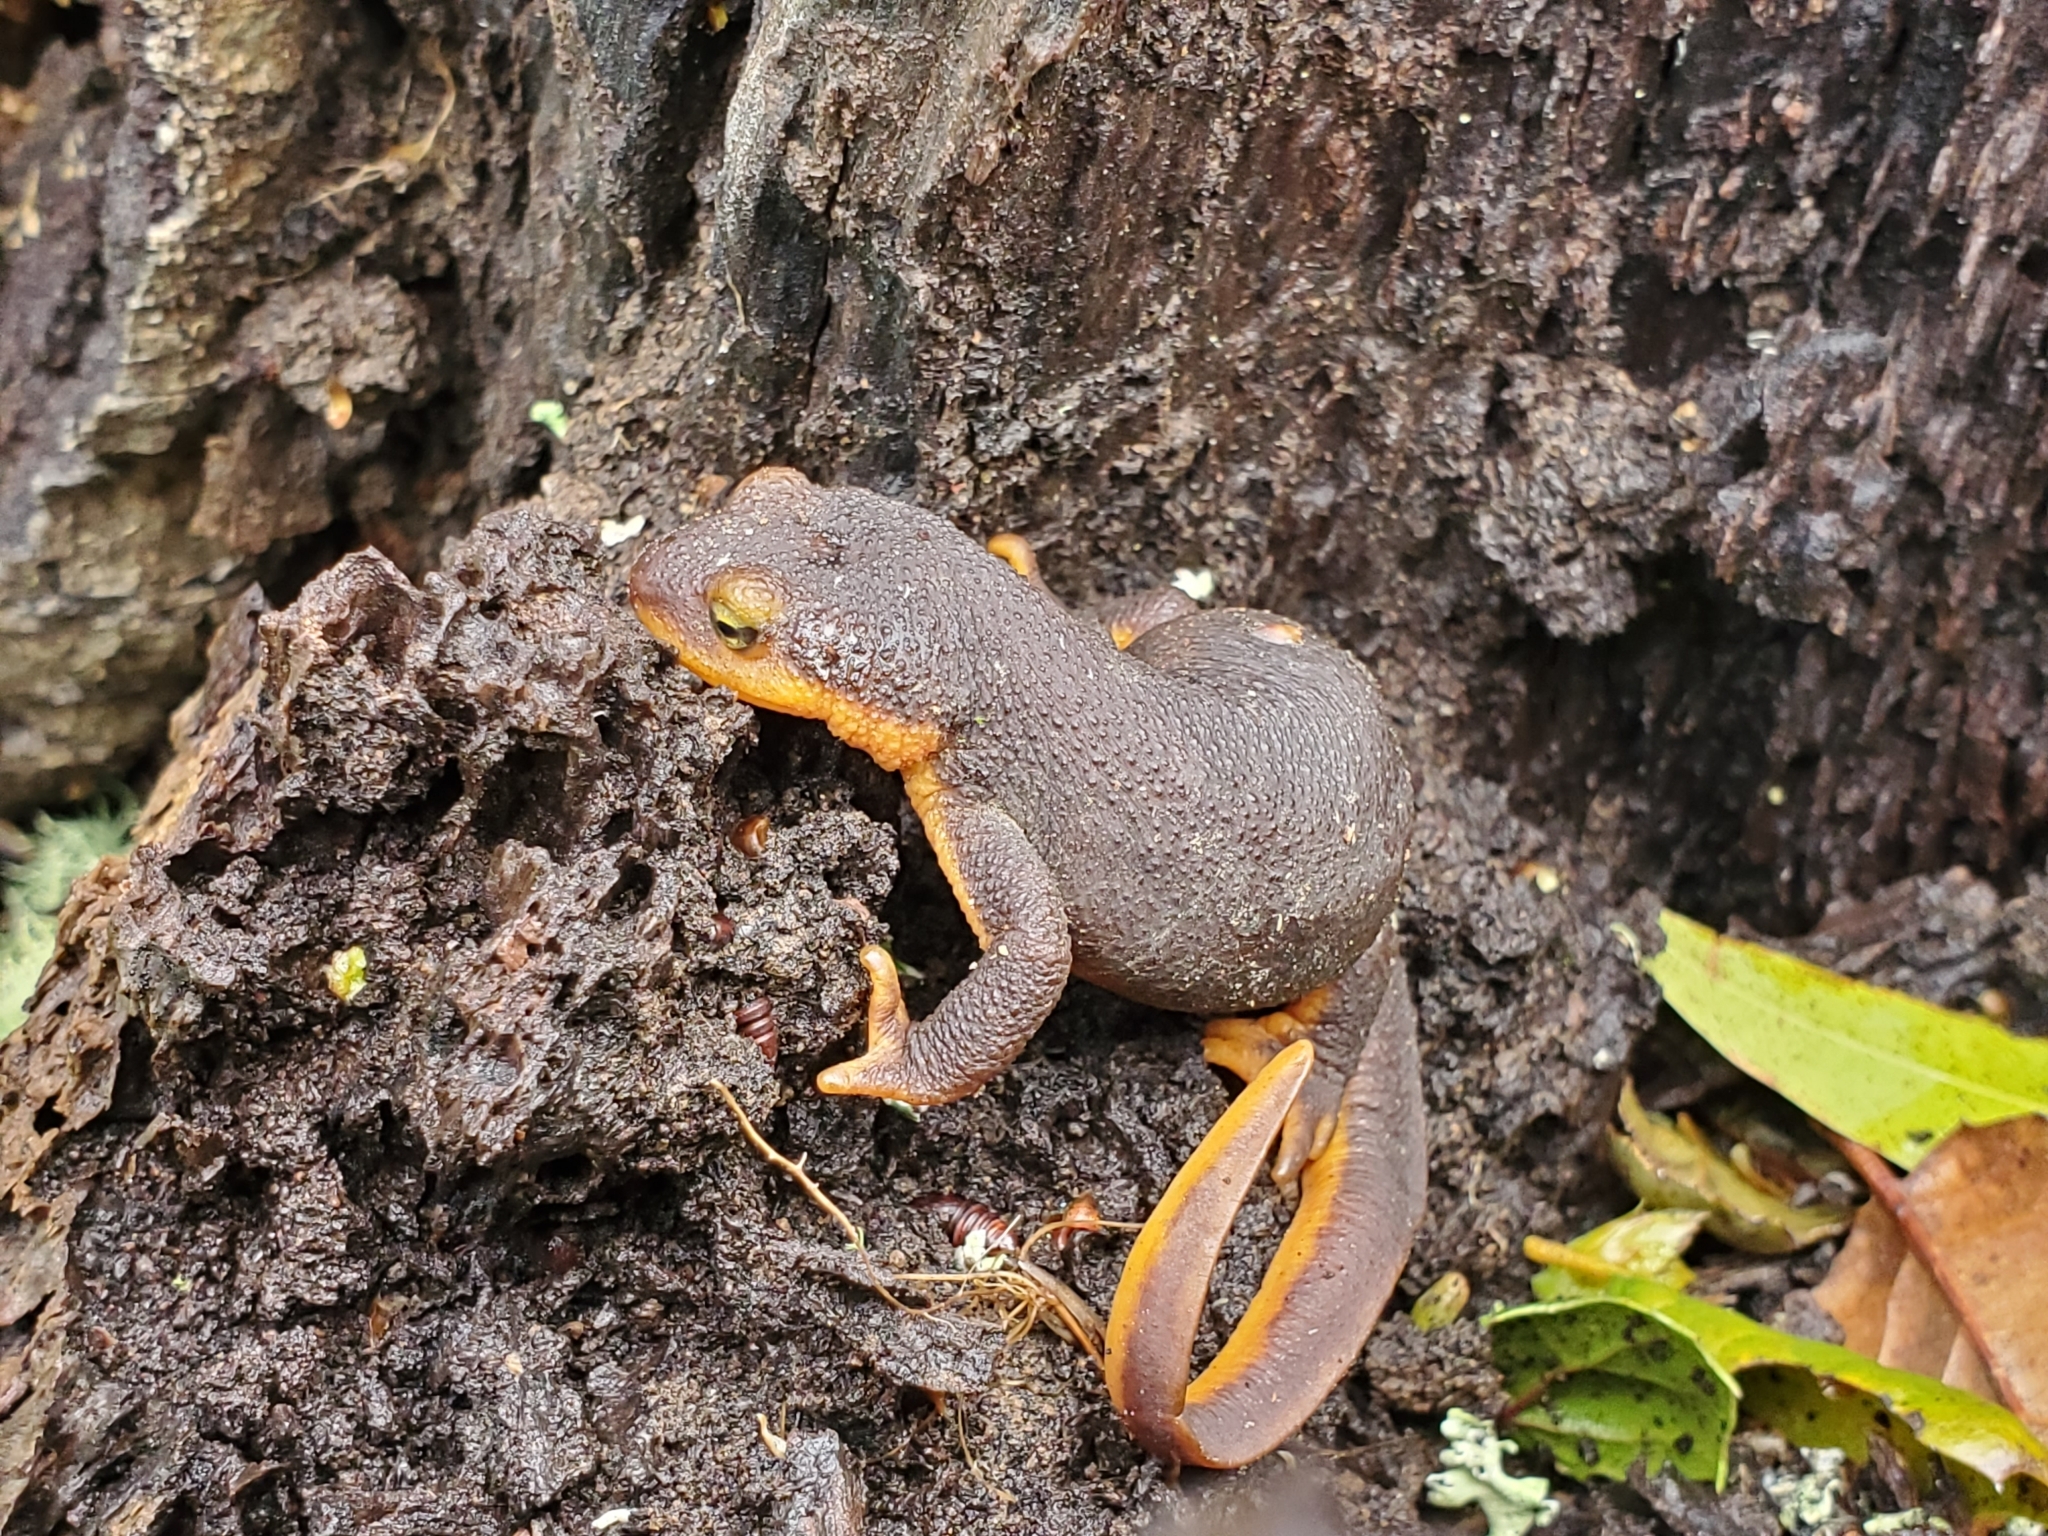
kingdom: Animalia
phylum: Chordata
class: Amphibia
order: Caudata
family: Salamandridae
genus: Taricha
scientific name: Taricha torosa
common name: California newt
